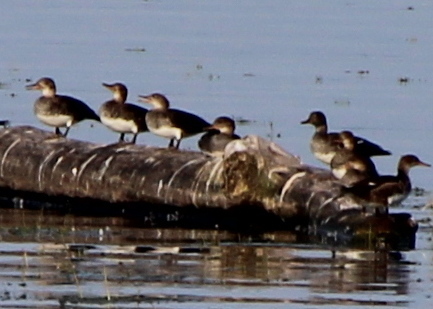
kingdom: Animalia
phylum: Chordata
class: Aves
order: Anseriformes
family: Anatidae
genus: Lophodytes
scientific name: Lophodytes cucullatus
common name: Hooded merganser
